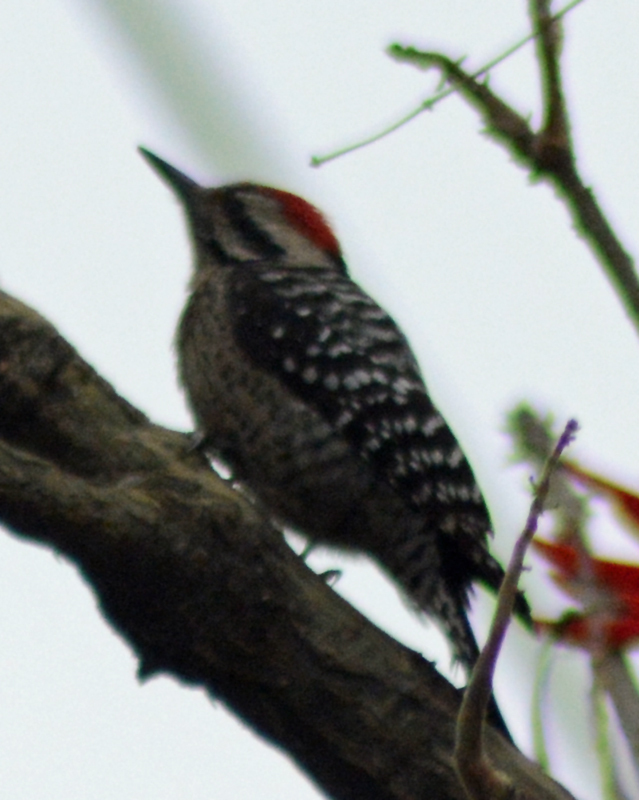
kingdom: Animalia
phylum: Chordata
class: Aves
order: Piciformes
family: Picidae
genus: Dryobates
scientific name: Dryobates scalaris
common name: Ladder-backed woodpecker
